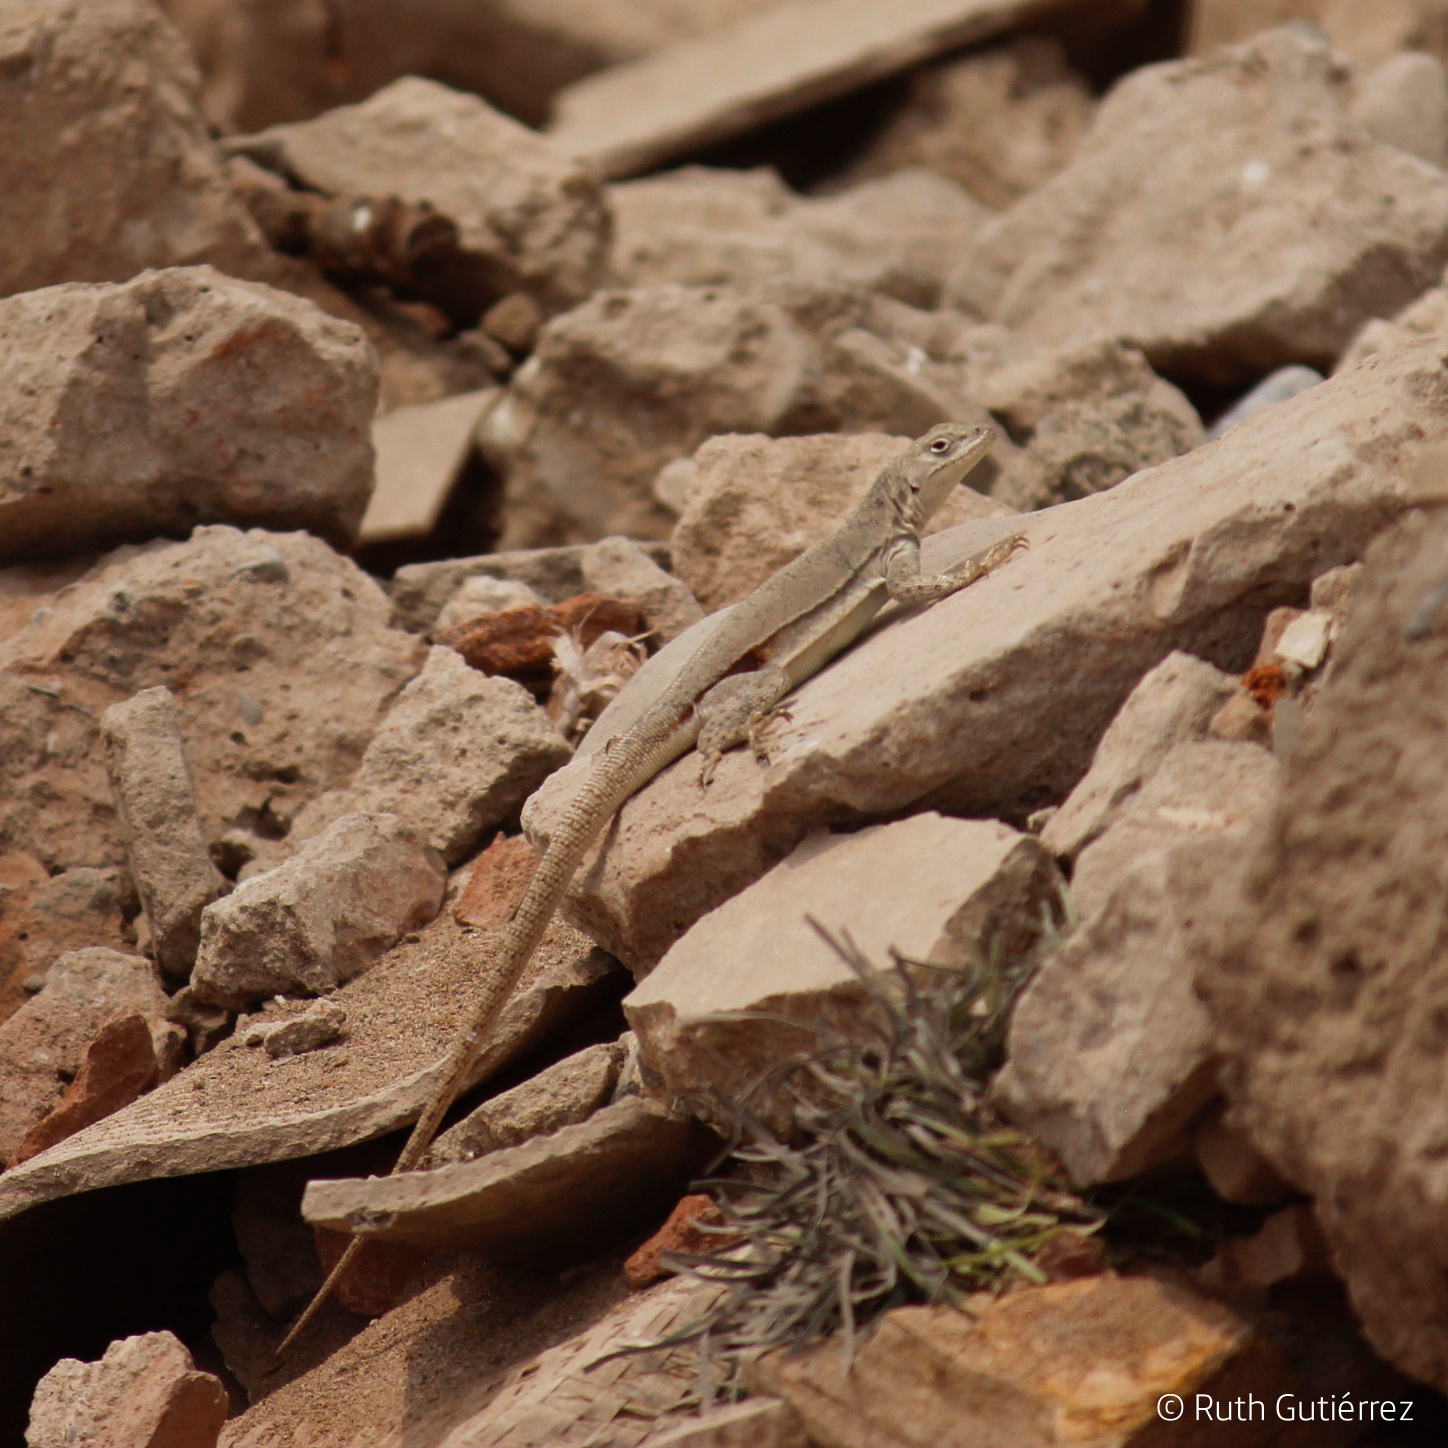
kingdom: Animalia
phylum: Chordata
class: Squamata
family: Tropiduridae
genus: Microlophus
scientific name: Microlophus peruvianus
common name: Peru pacific iguana
